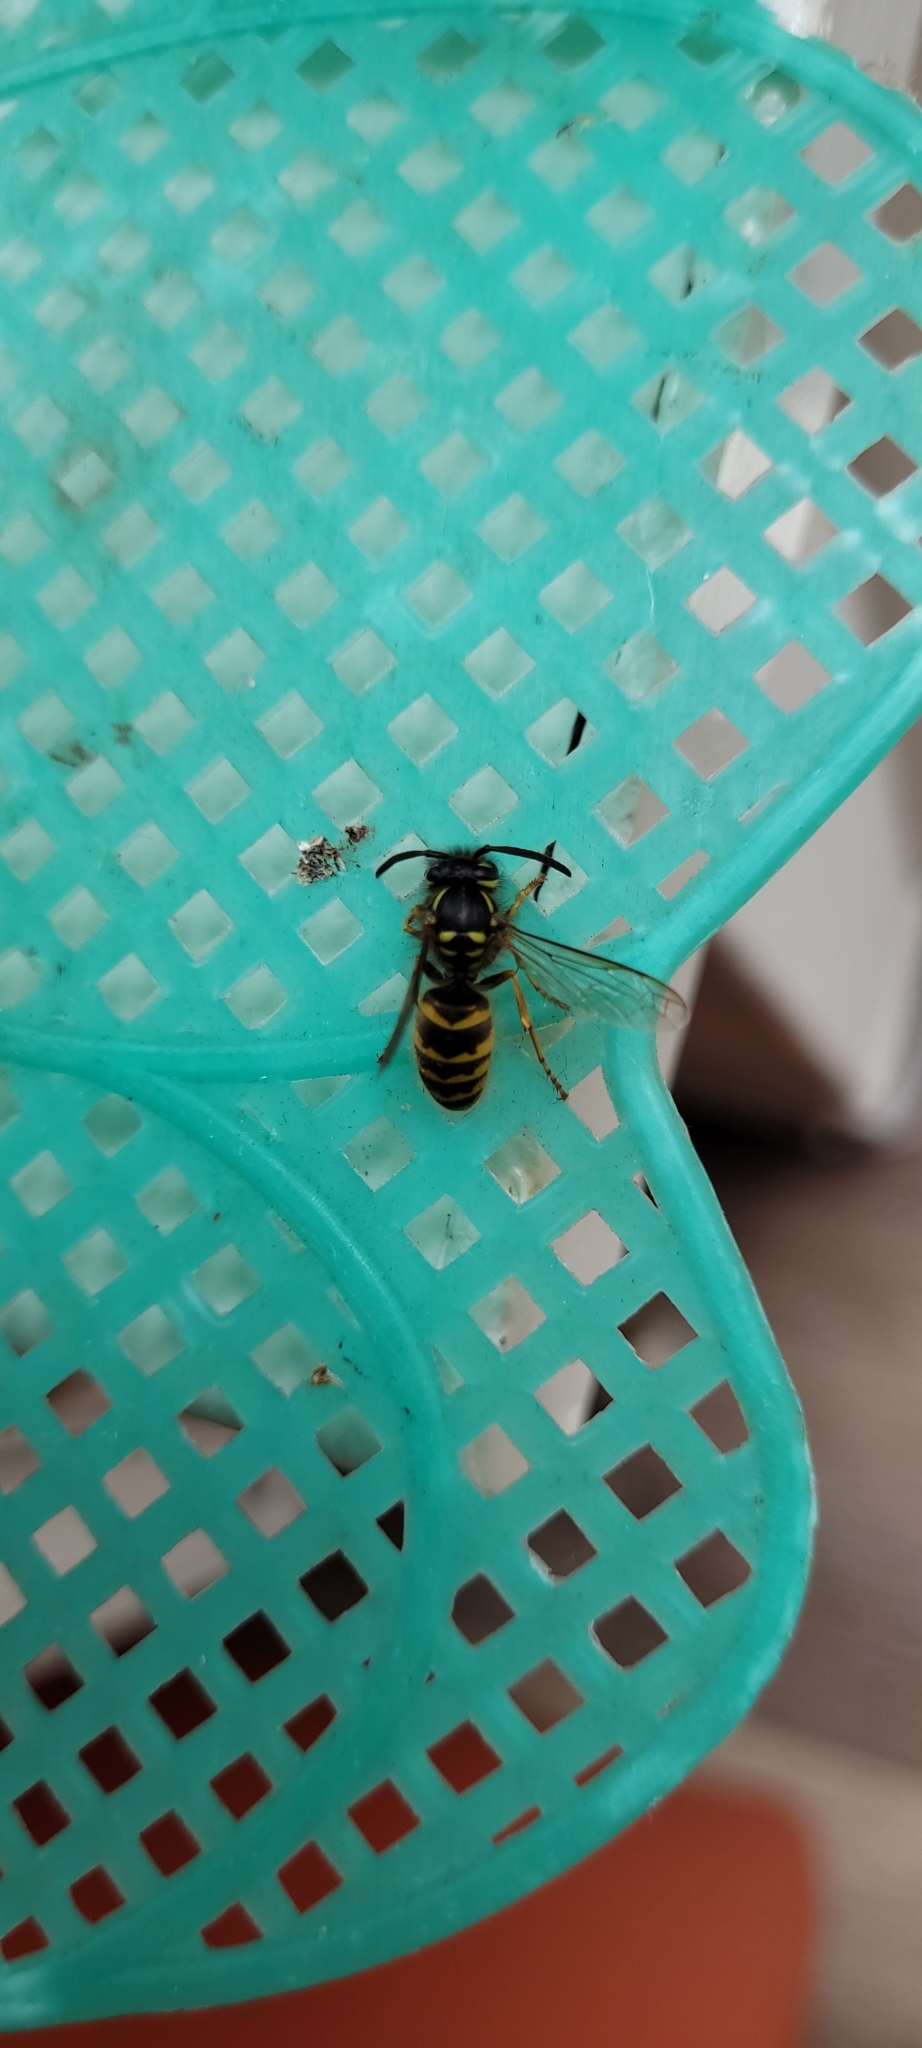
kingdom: Animalia
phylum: Arthropoda
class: Insecta
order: Hymenoptera
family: Vespidae
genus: Vespula
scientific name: Vespula vulgaris
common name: Common wasp
